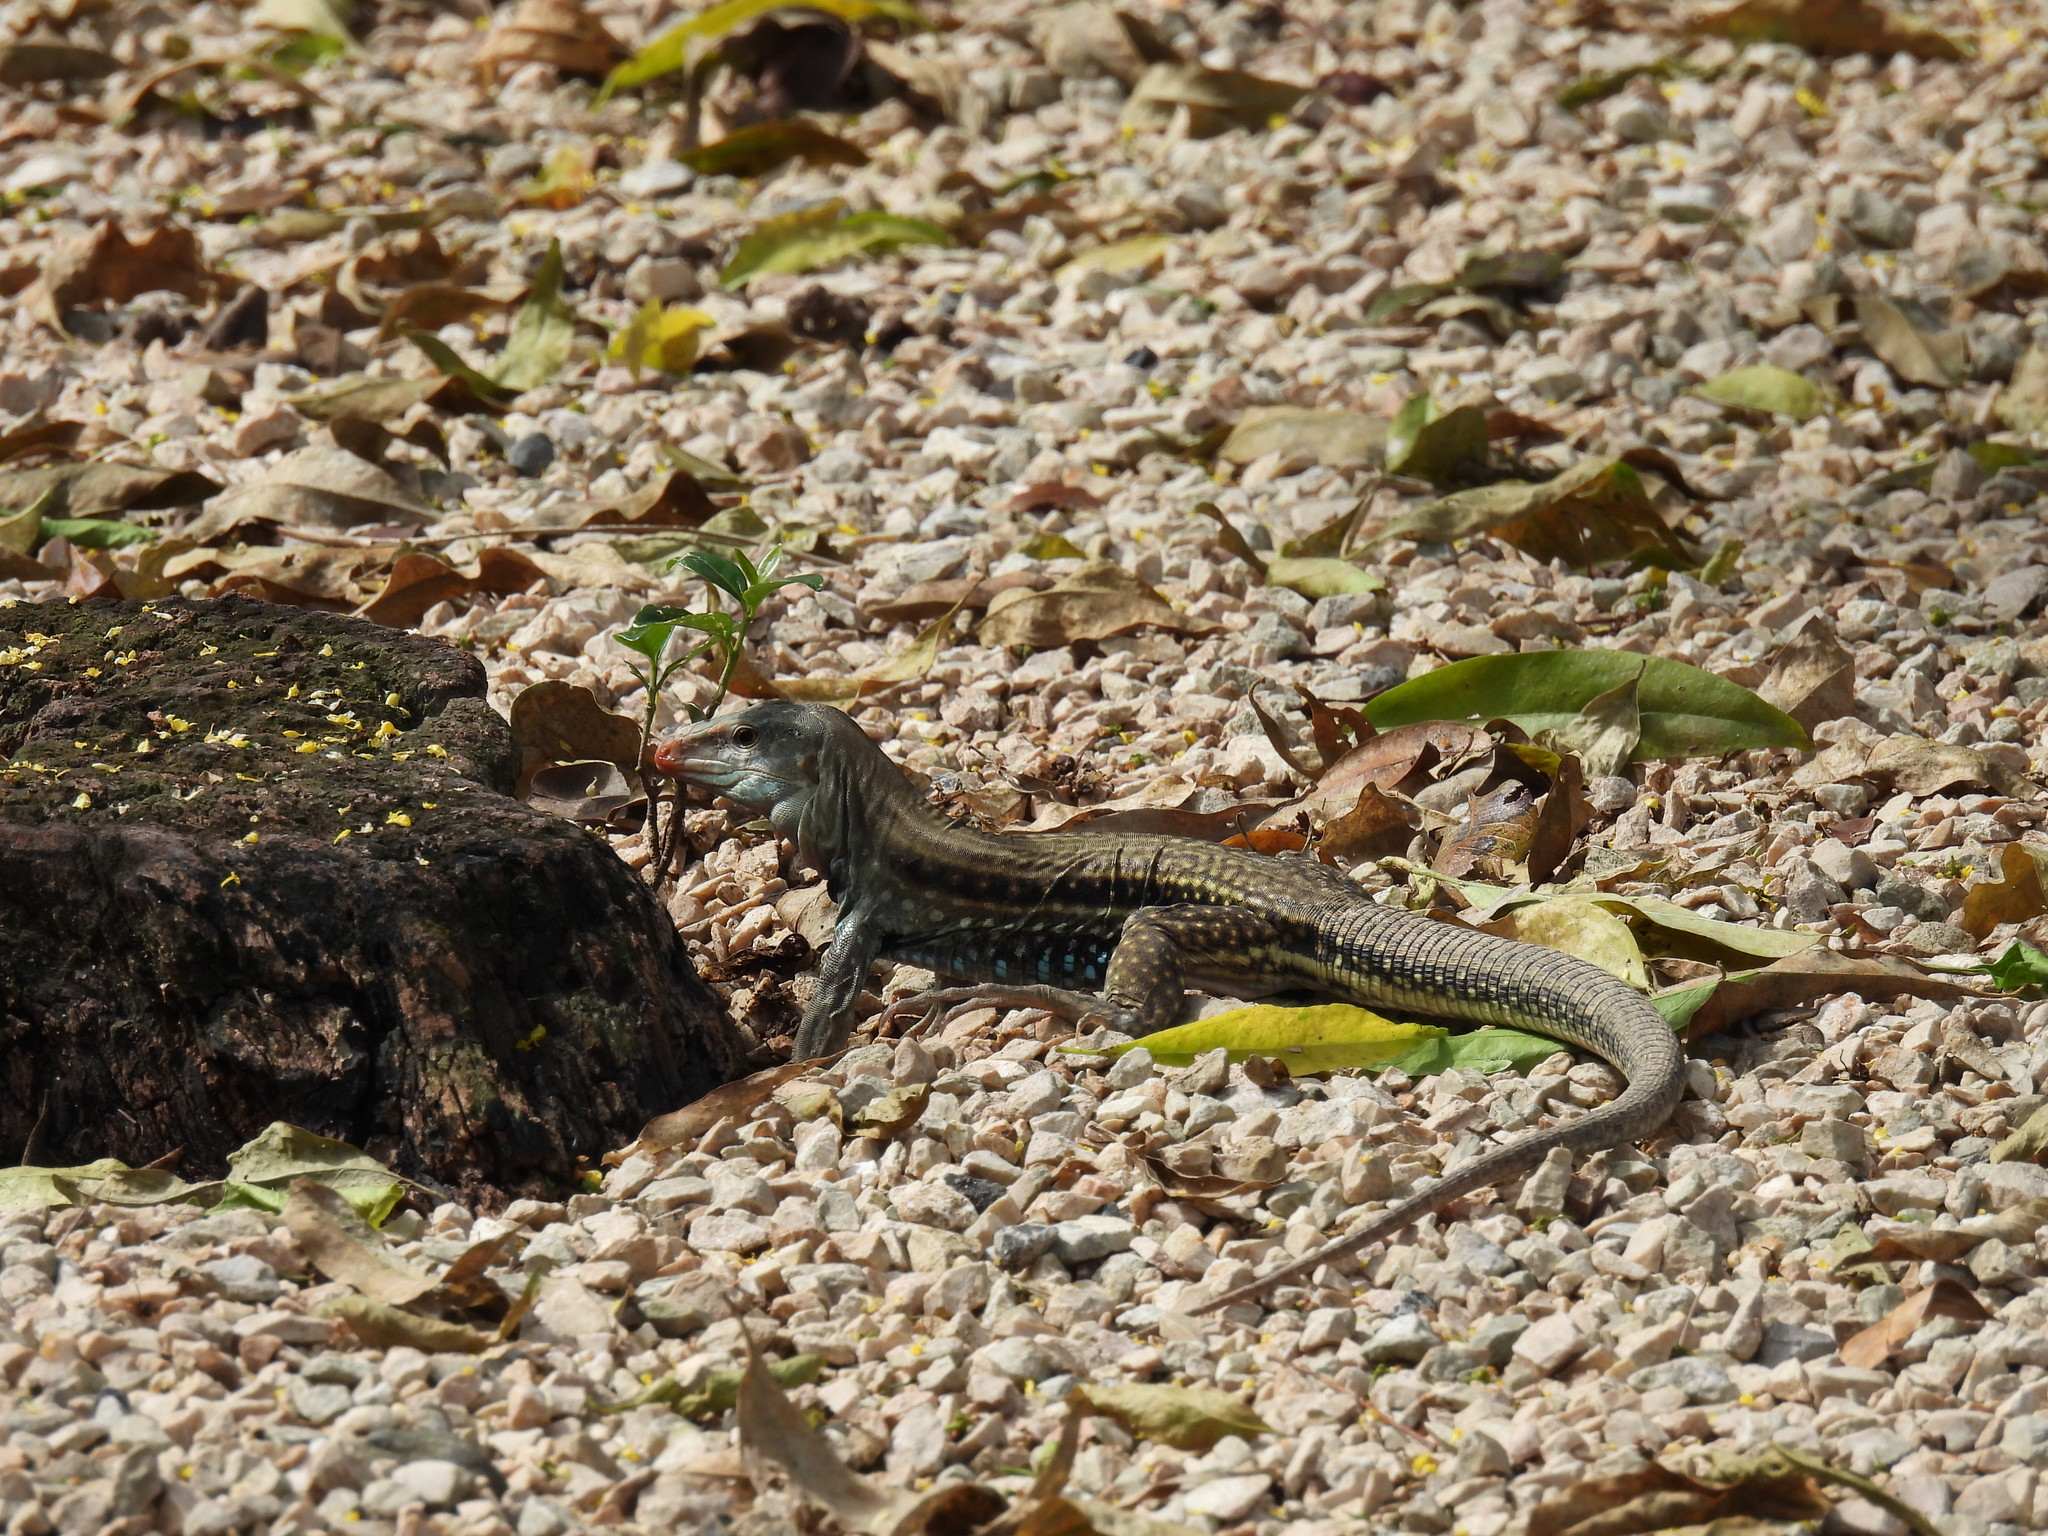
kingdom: Animalia
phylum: Chordata
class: Squamata
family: Teiidae
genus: Pholidoscelis
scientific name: Pholidoscelis chrysolaemus
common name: Common ameiva
